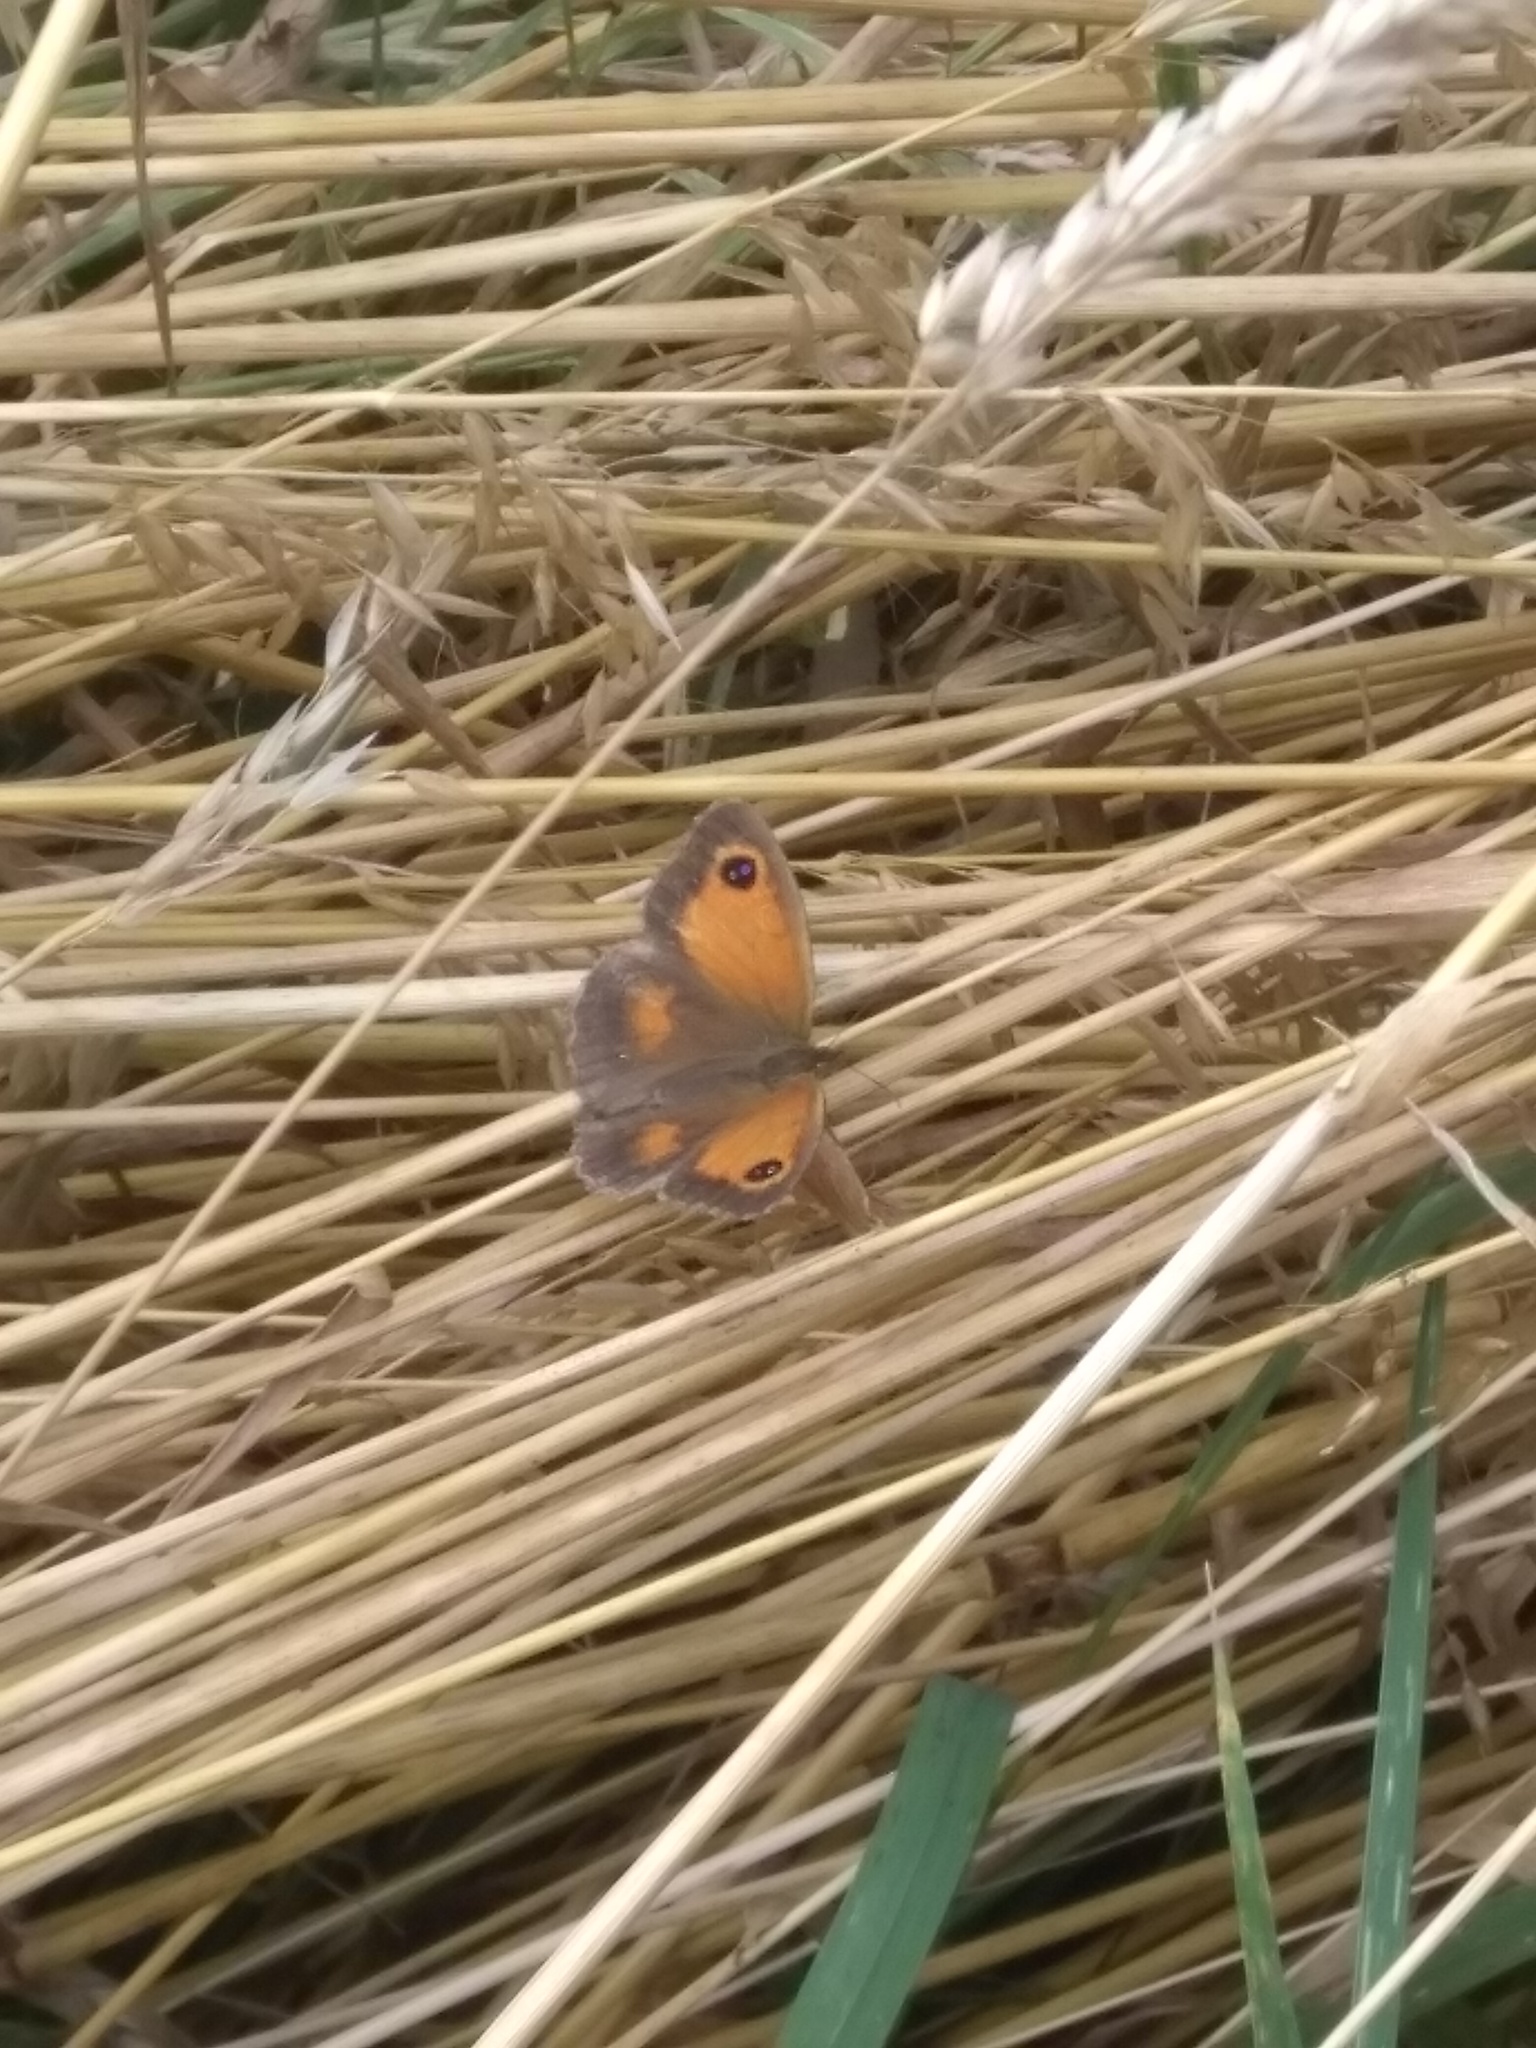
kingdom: Animalia
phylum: Arthropoda
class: Insecta
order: Lepidoptera
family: Nymphalidae
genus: Pyronia
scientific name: Pyronia tithonus
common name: Gatekeeper
